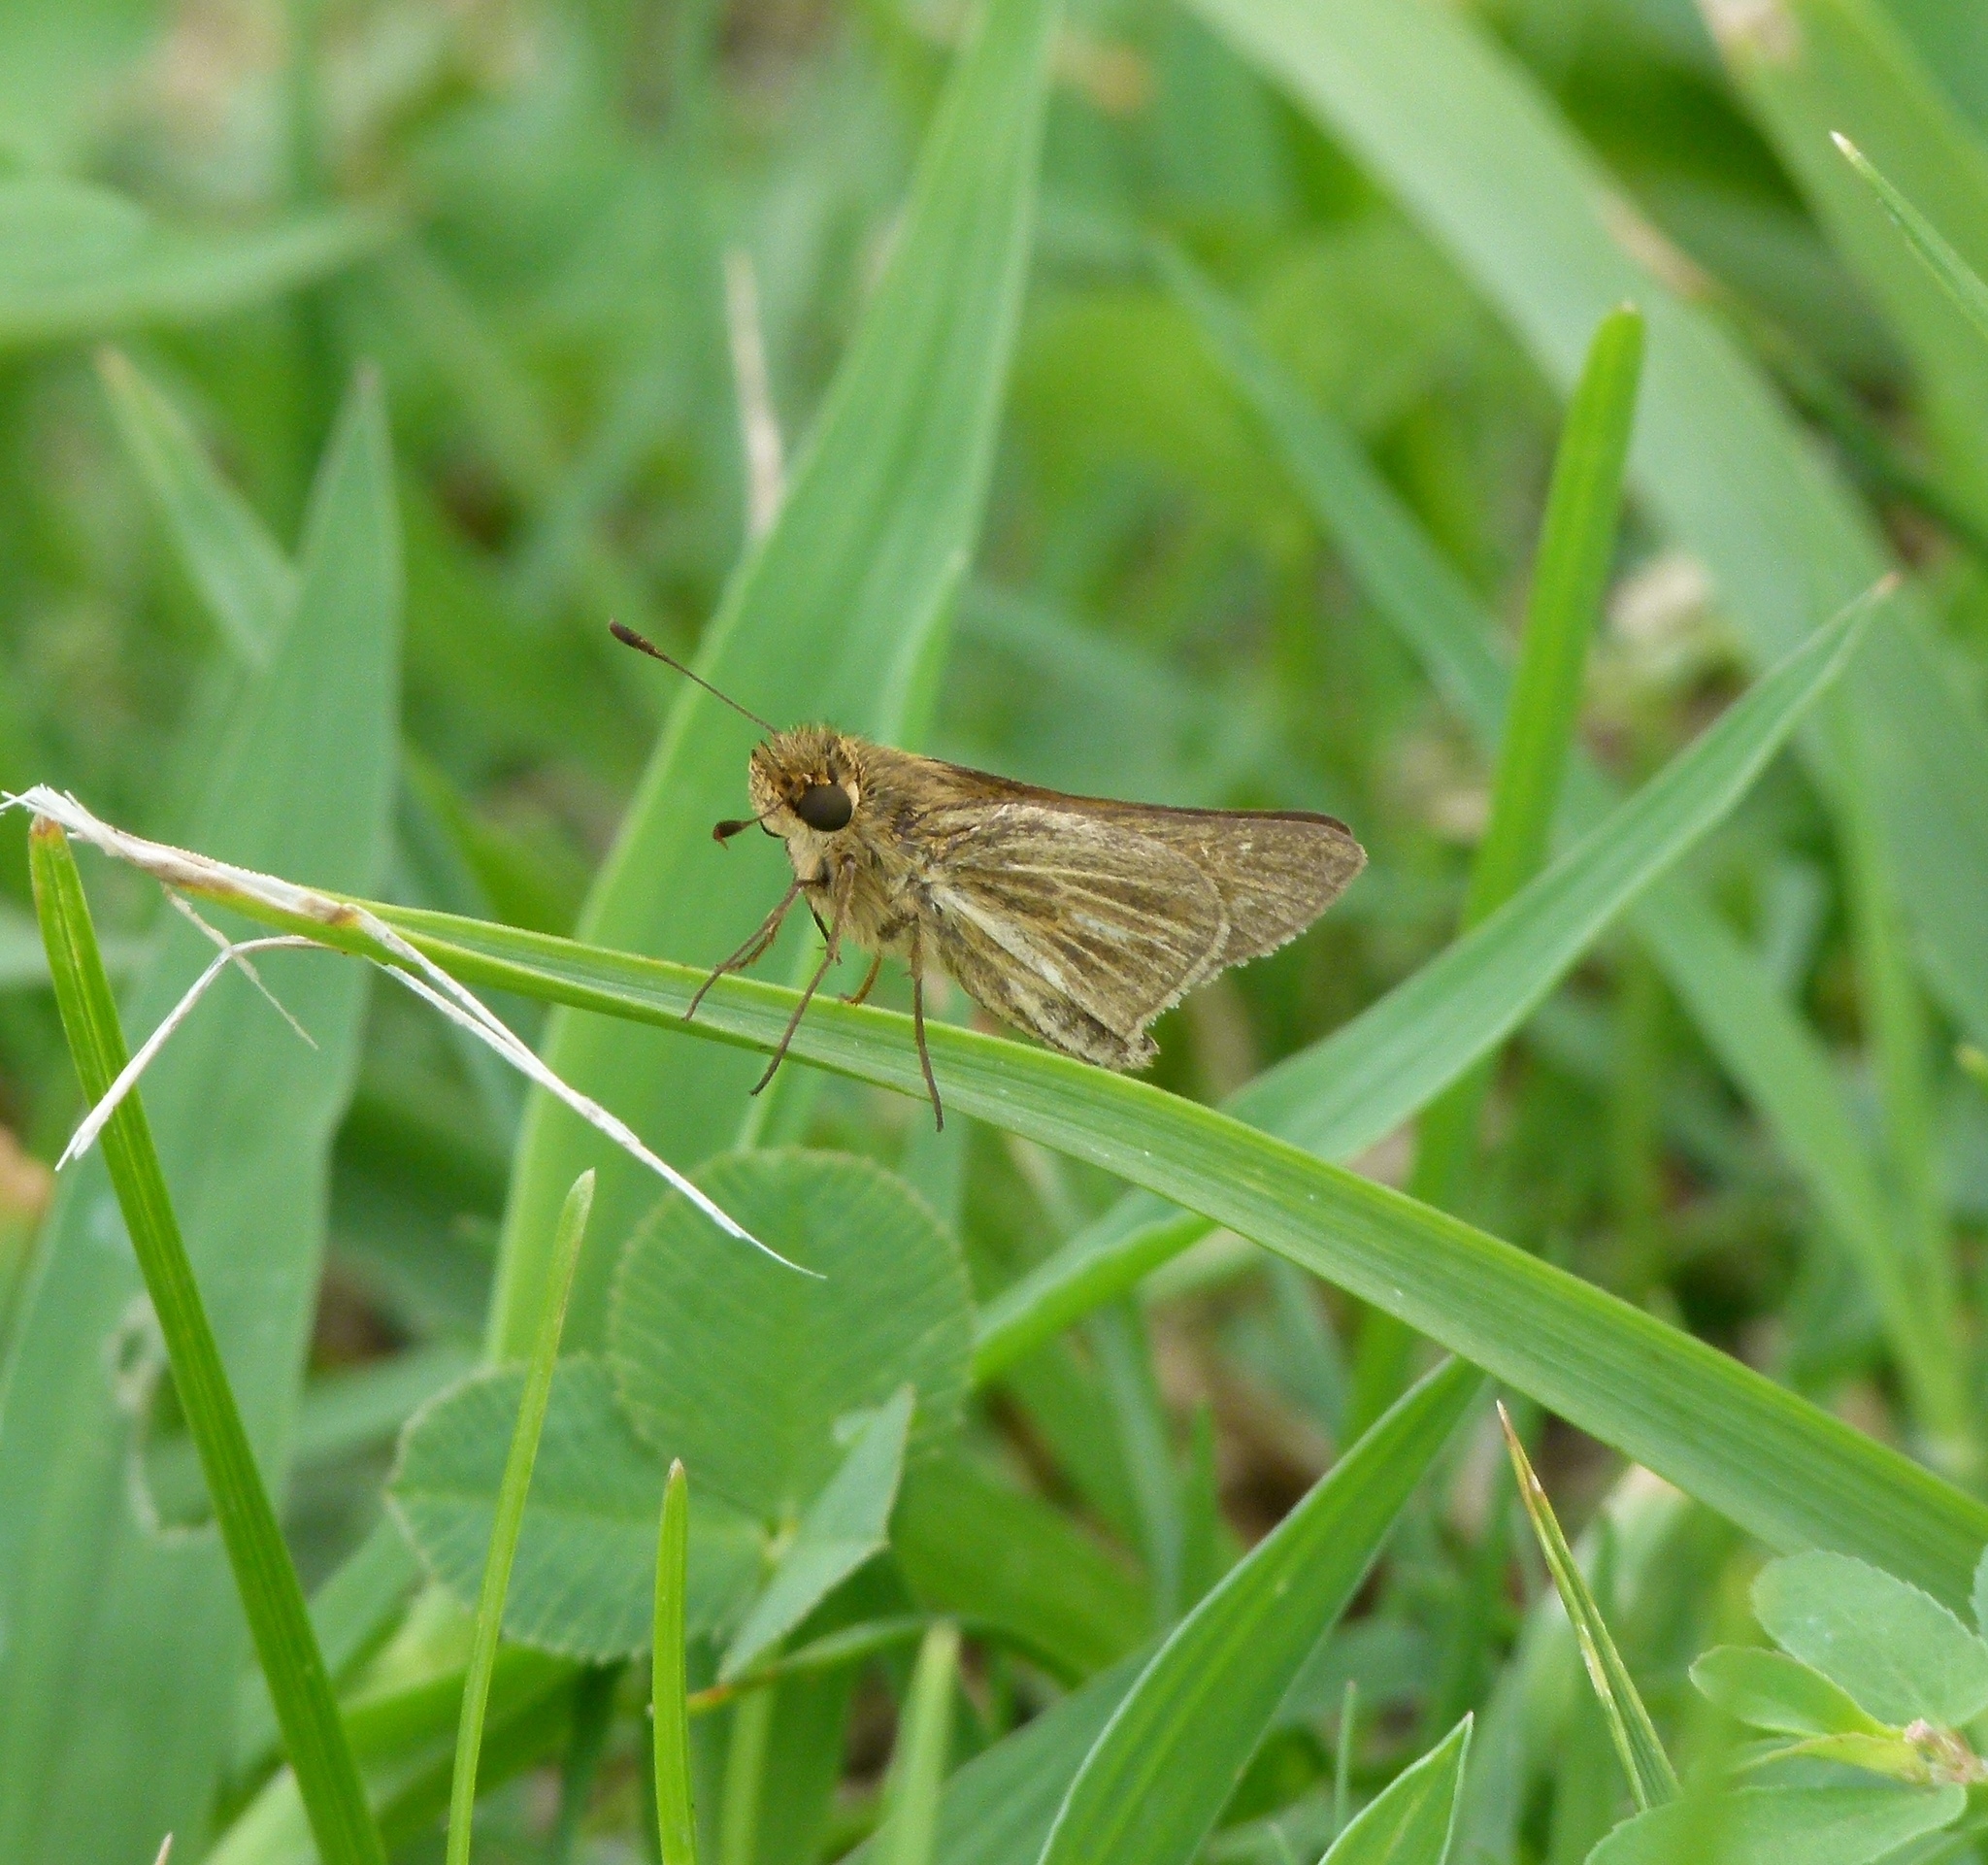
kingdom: Animalia
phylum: Arthropoda
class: Insecta
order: Lepidoptera
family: Hesperiidae
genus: Panoquina
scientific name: Panoquina panoquin
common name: Salt marsh skipper
